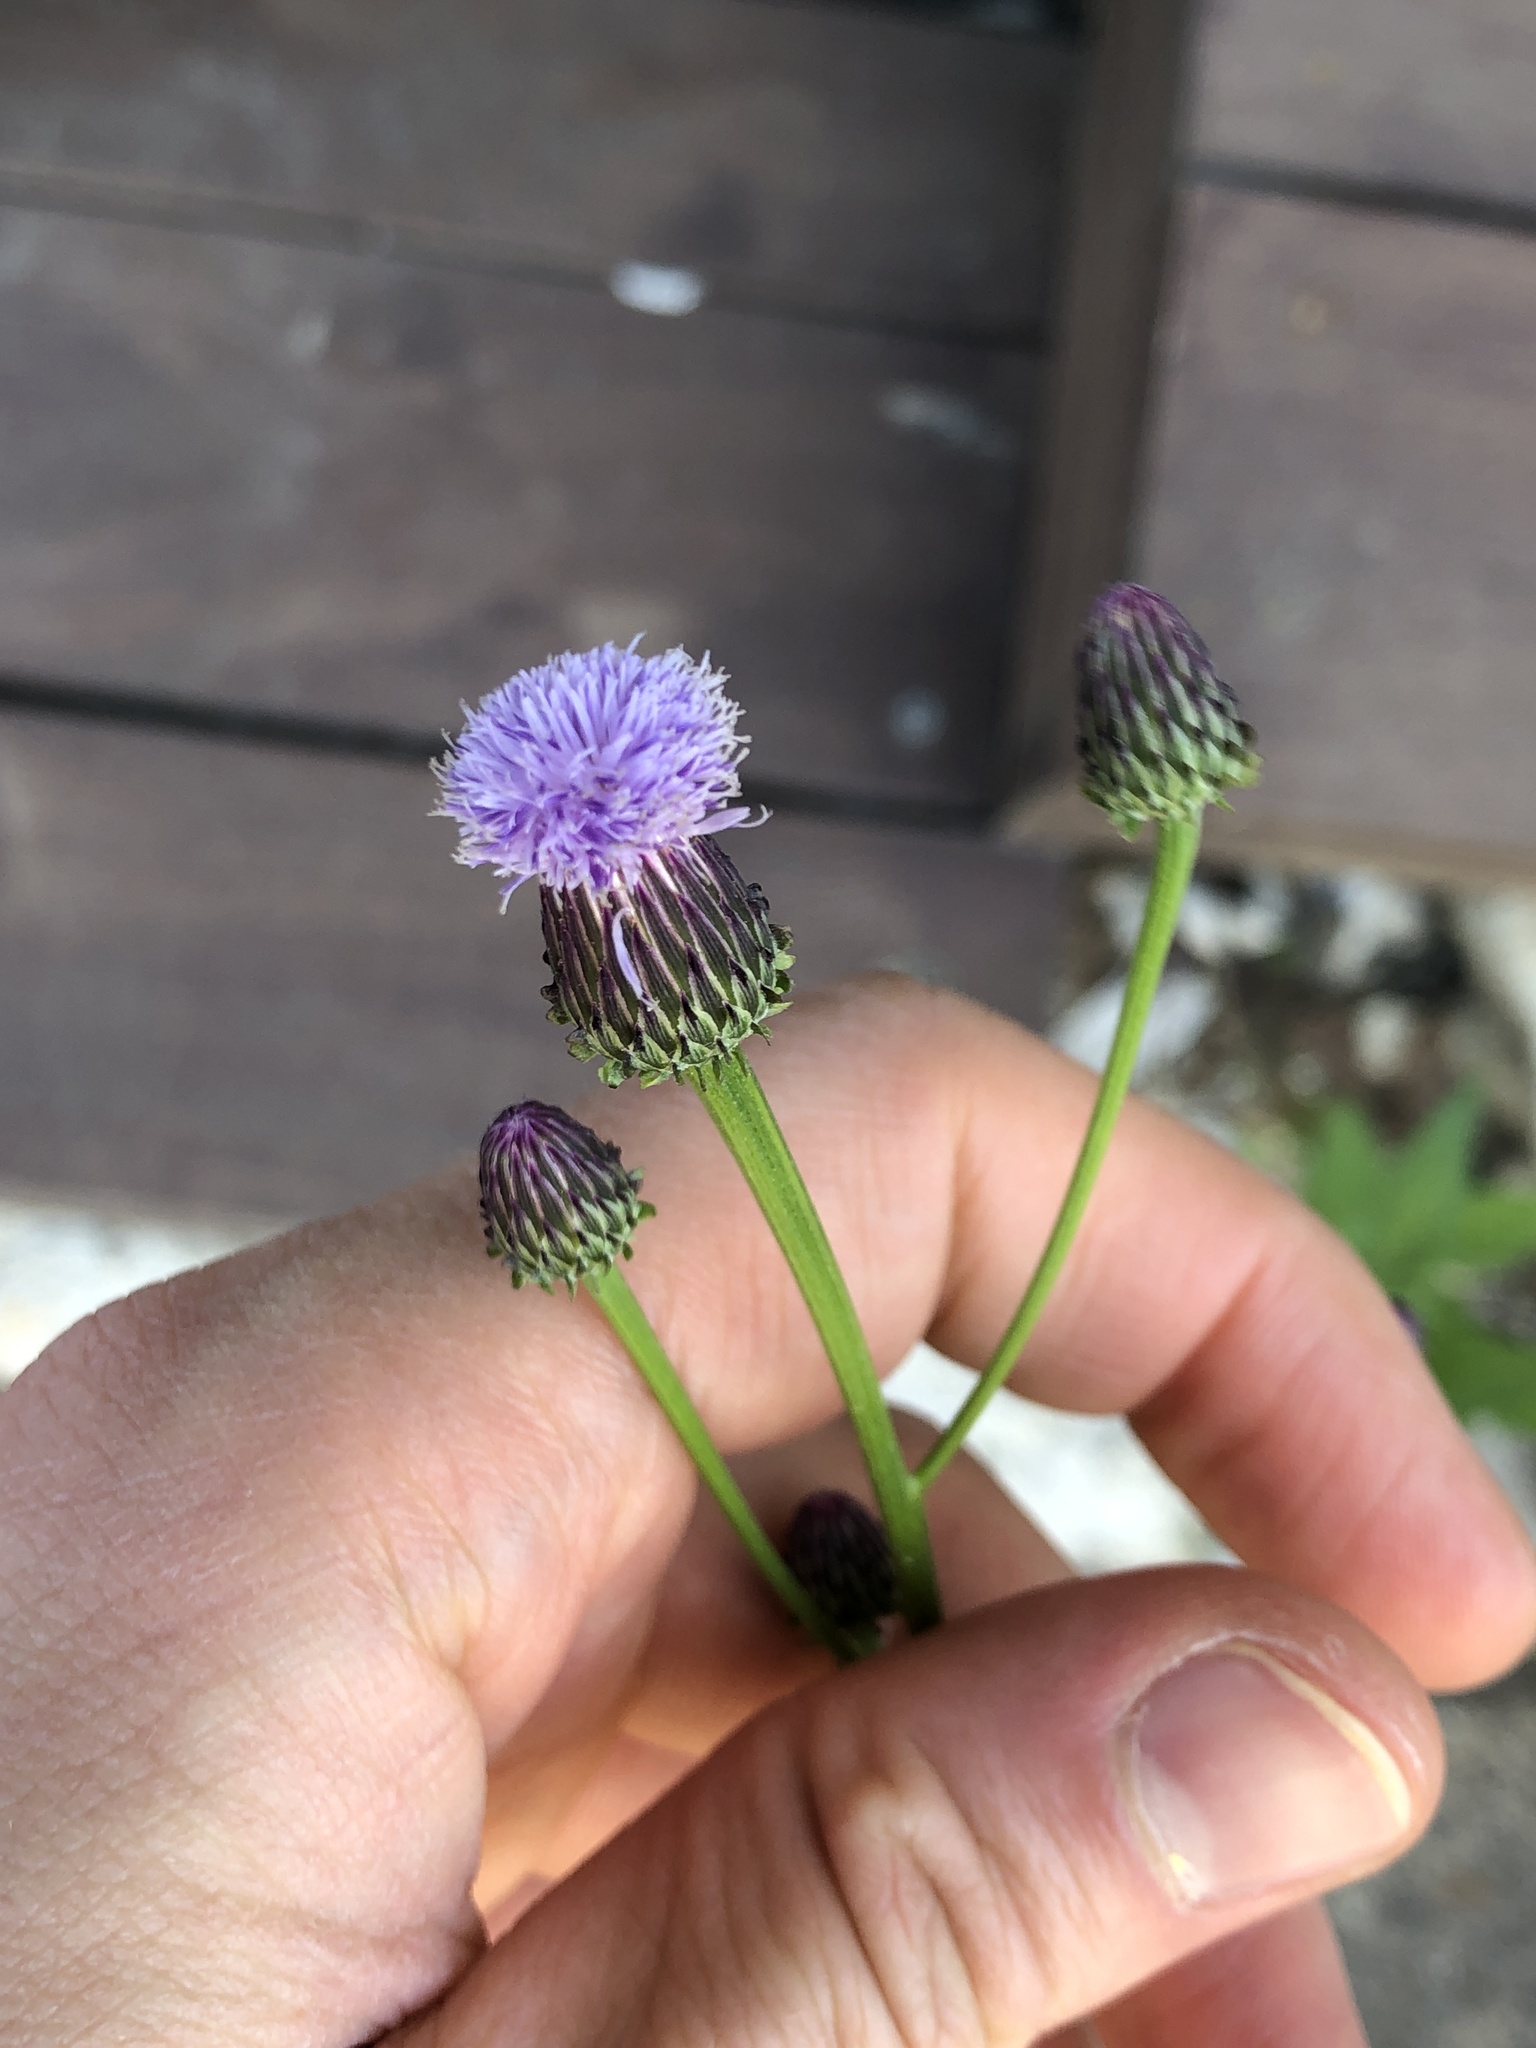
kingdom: Plantae
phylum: Tracheophyta
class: Magnoliopsida
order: Asterales
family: Asteraceae
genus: Cirsium
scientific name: Cirsium arvense
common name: Creeping thistle
